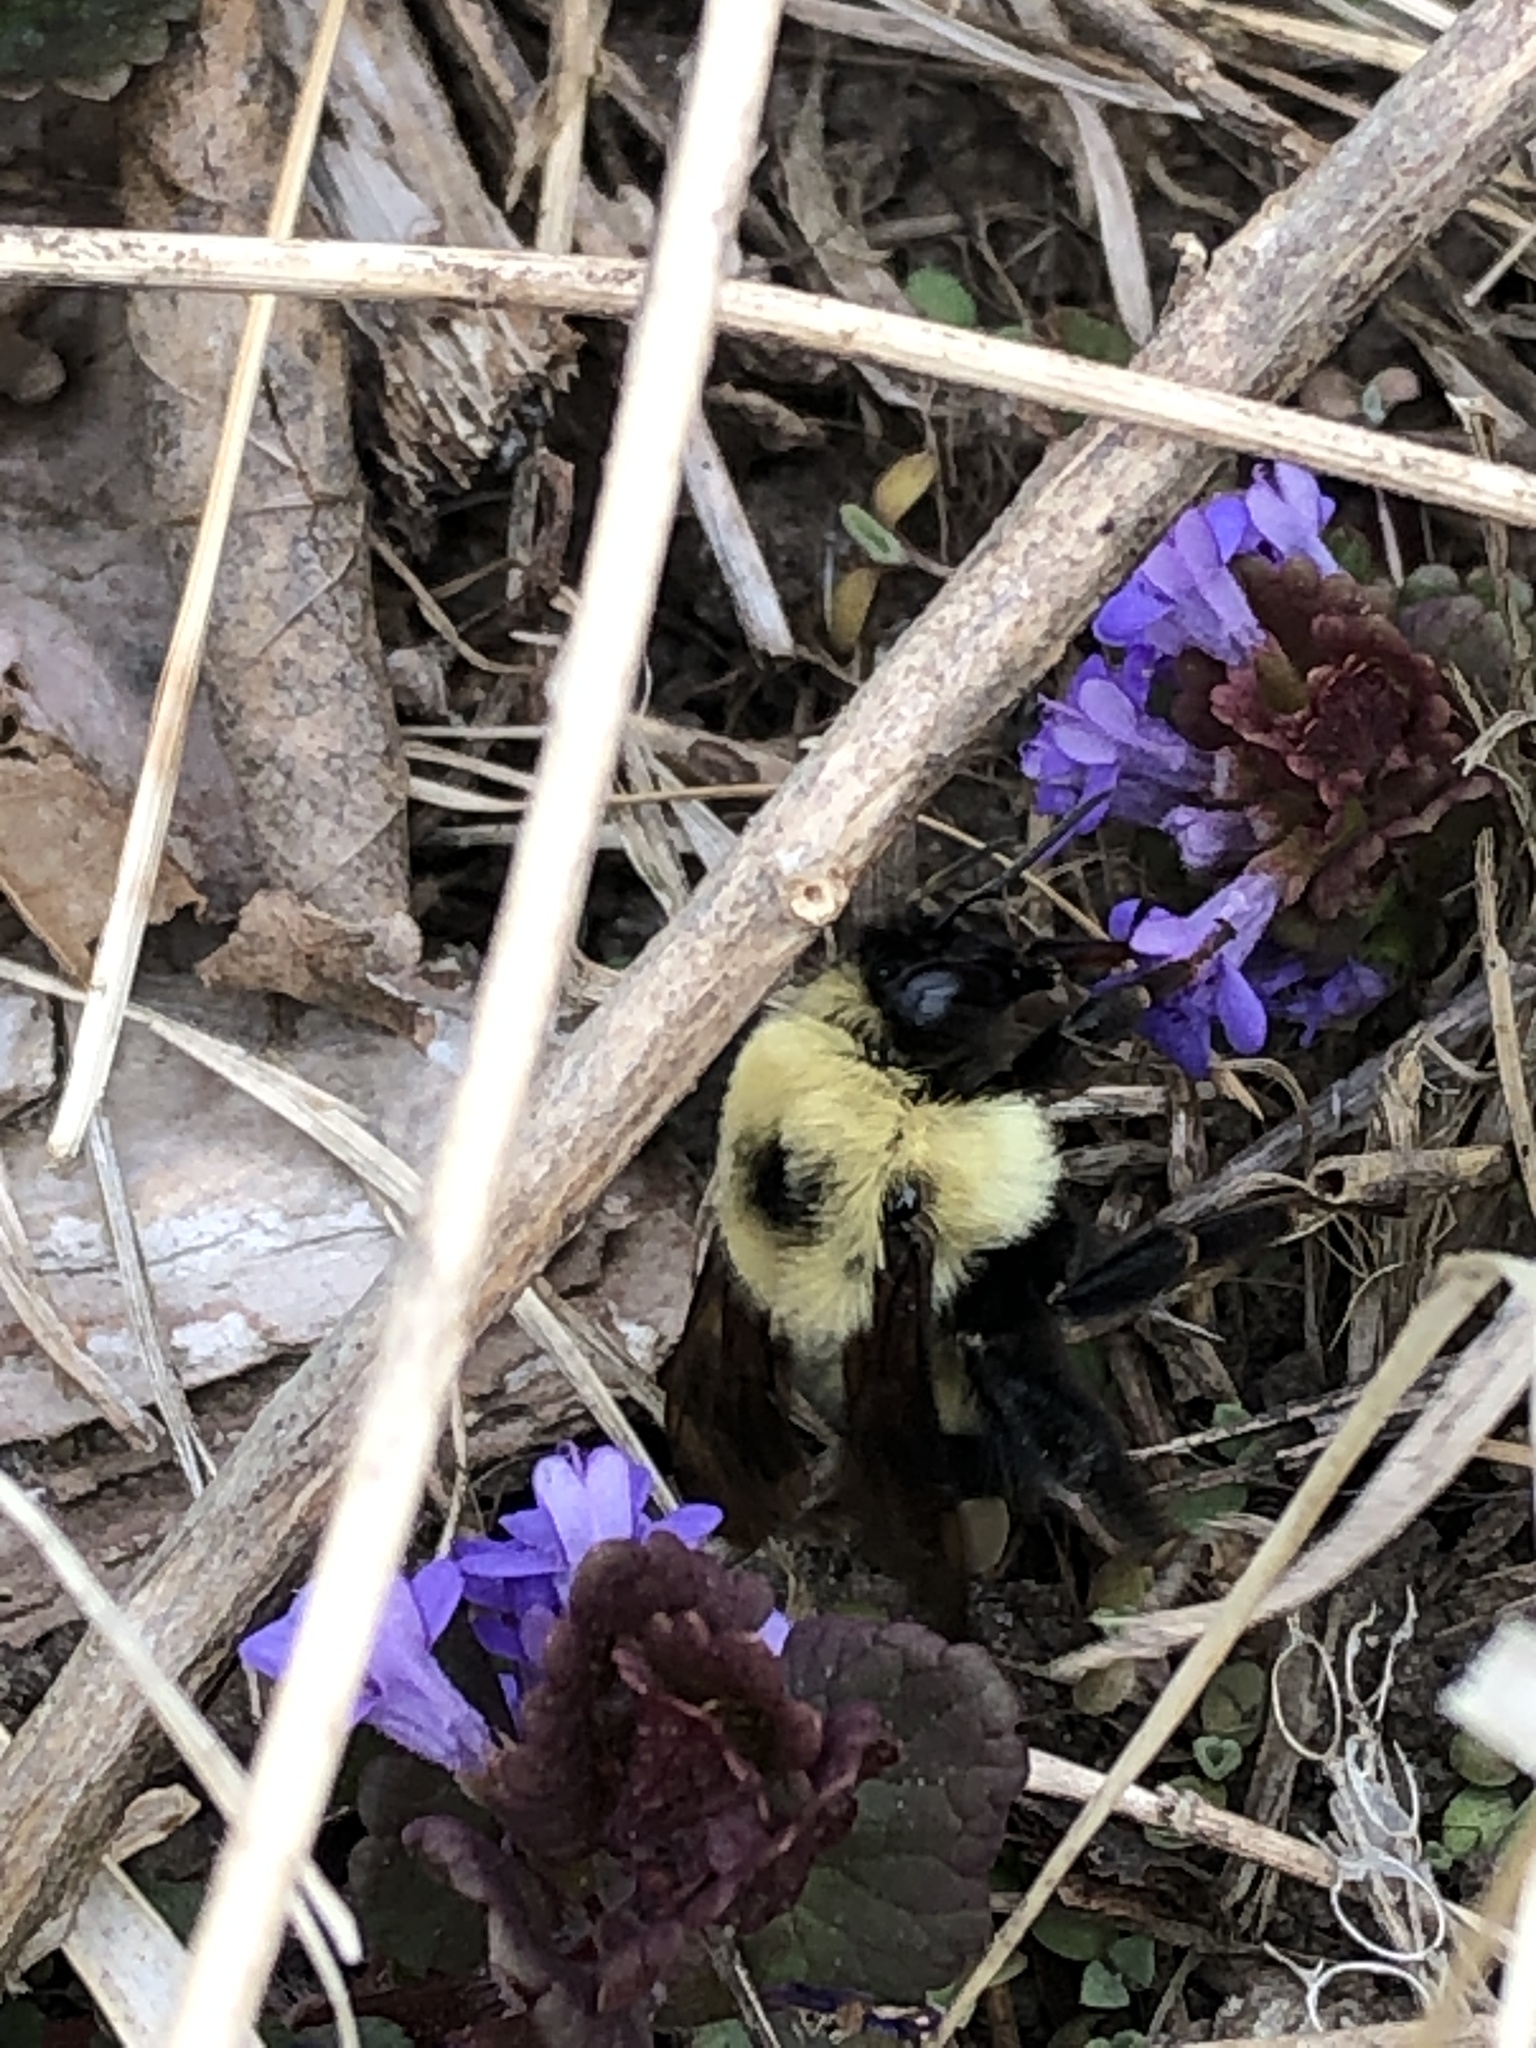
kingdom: Animalia
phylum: Arthropoda
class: Insecta
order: Hymenoptera
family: Apidae
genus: Bombus
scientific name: Bombus bimaculatus
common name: Two-spotted bumble bee
